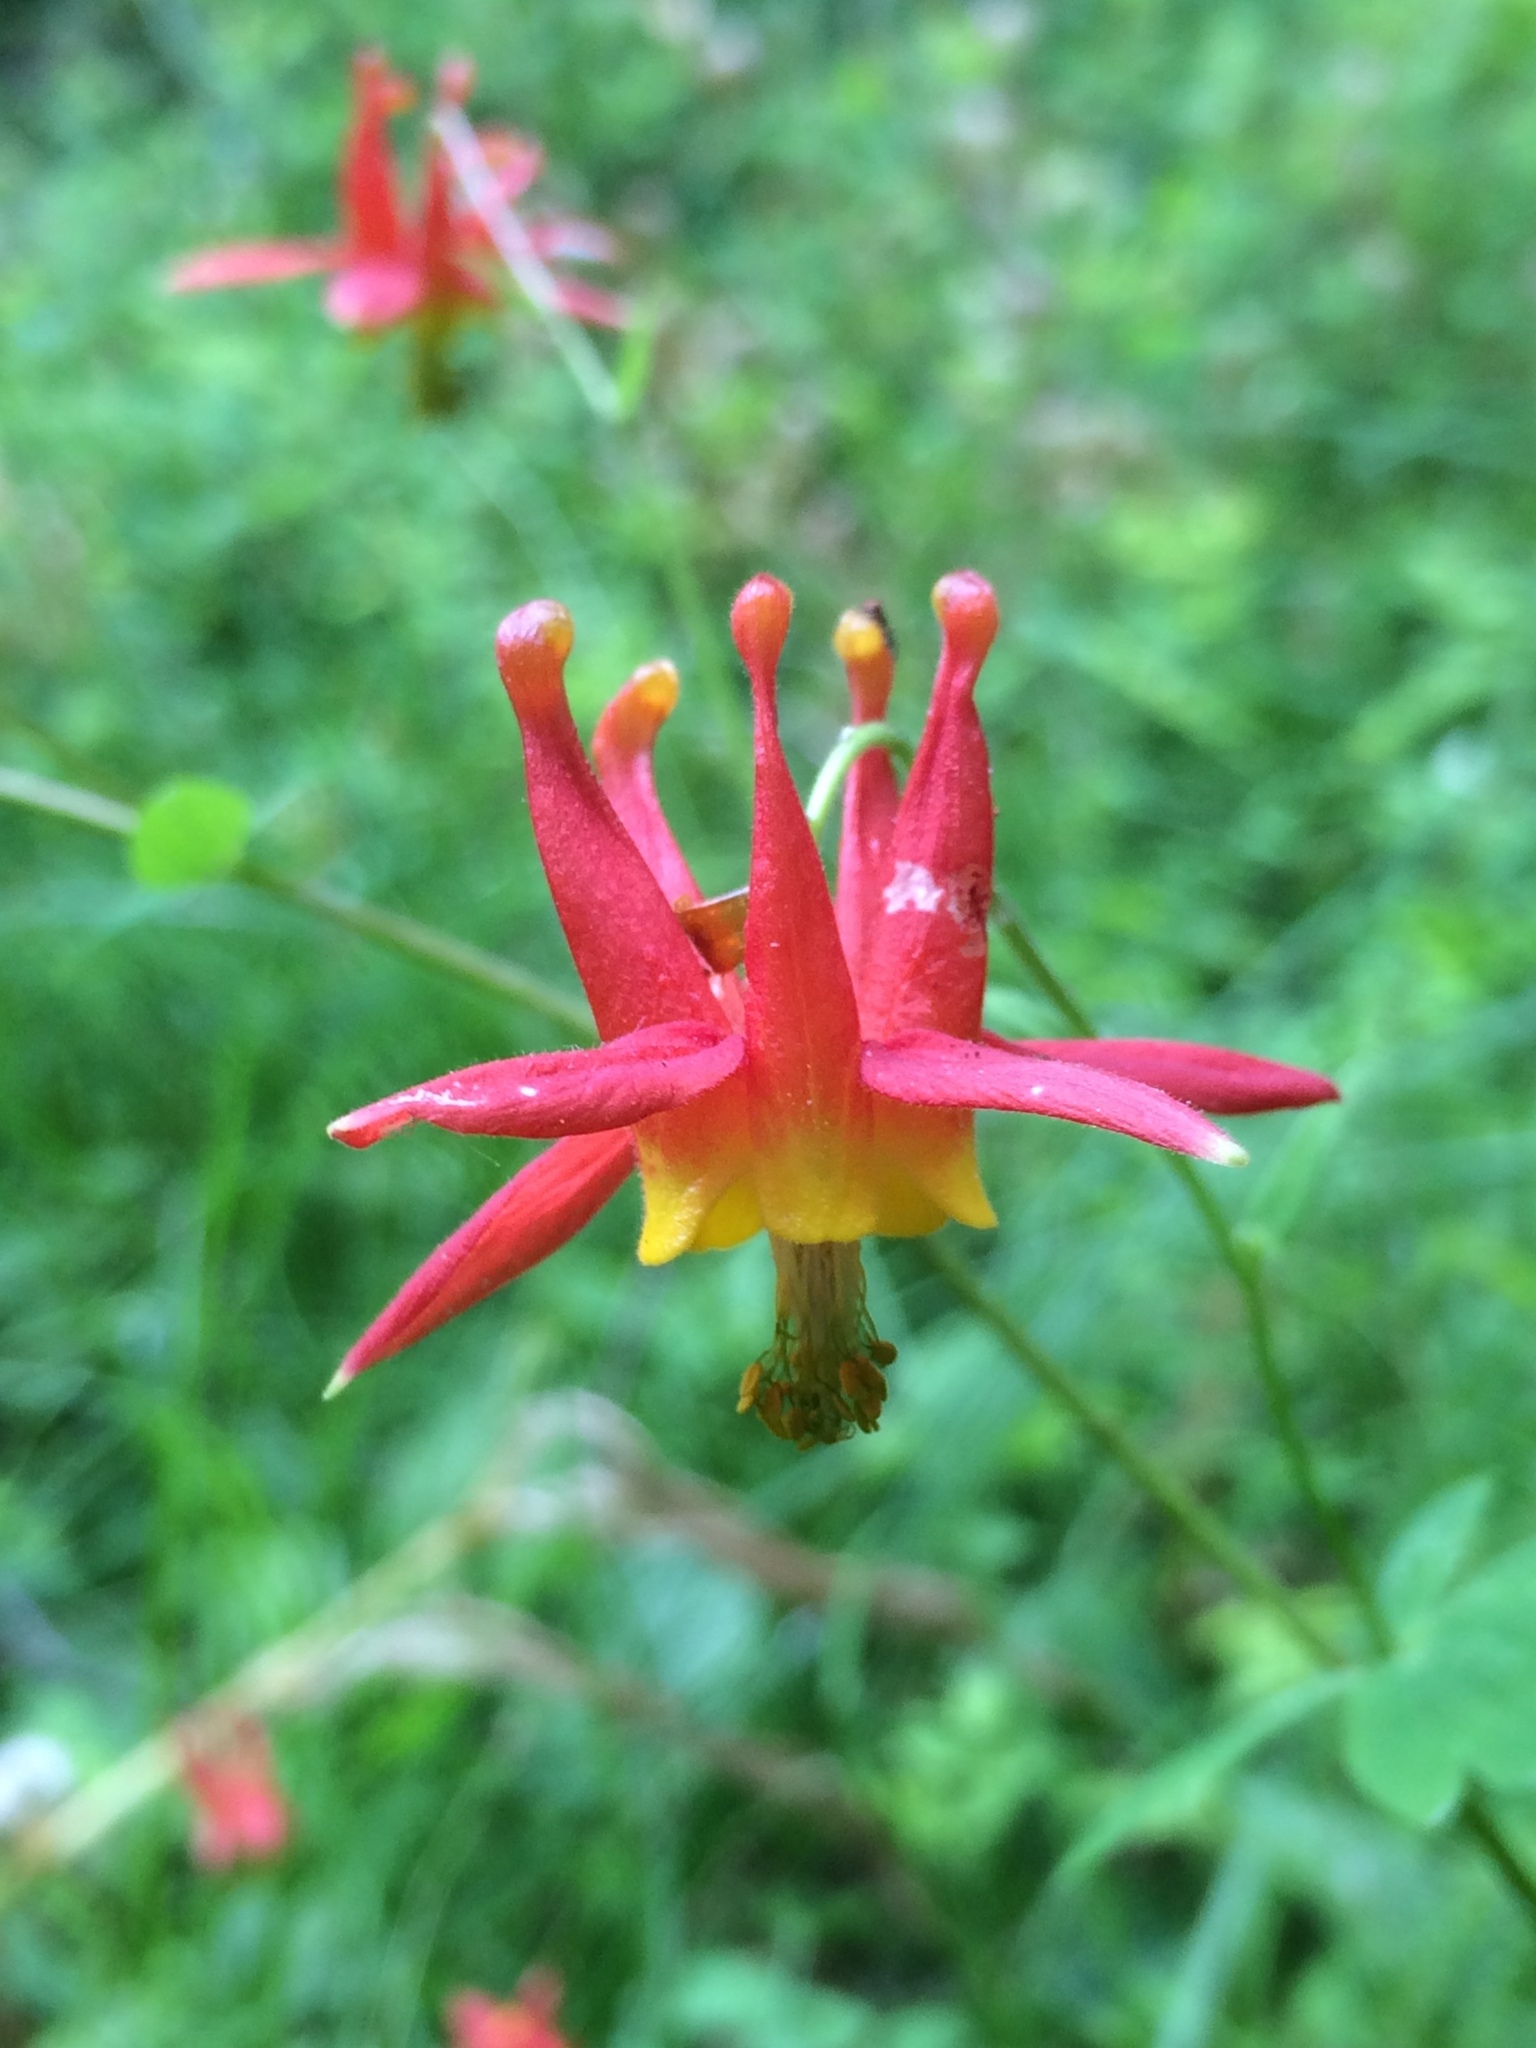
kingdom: Plantae
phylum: Tracheophyta
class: Magnoliopsida
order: Ranunculales
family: Ranunculaceae
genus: Aquilegia
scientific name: Aquilegia formosa
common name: Sitka columbine
